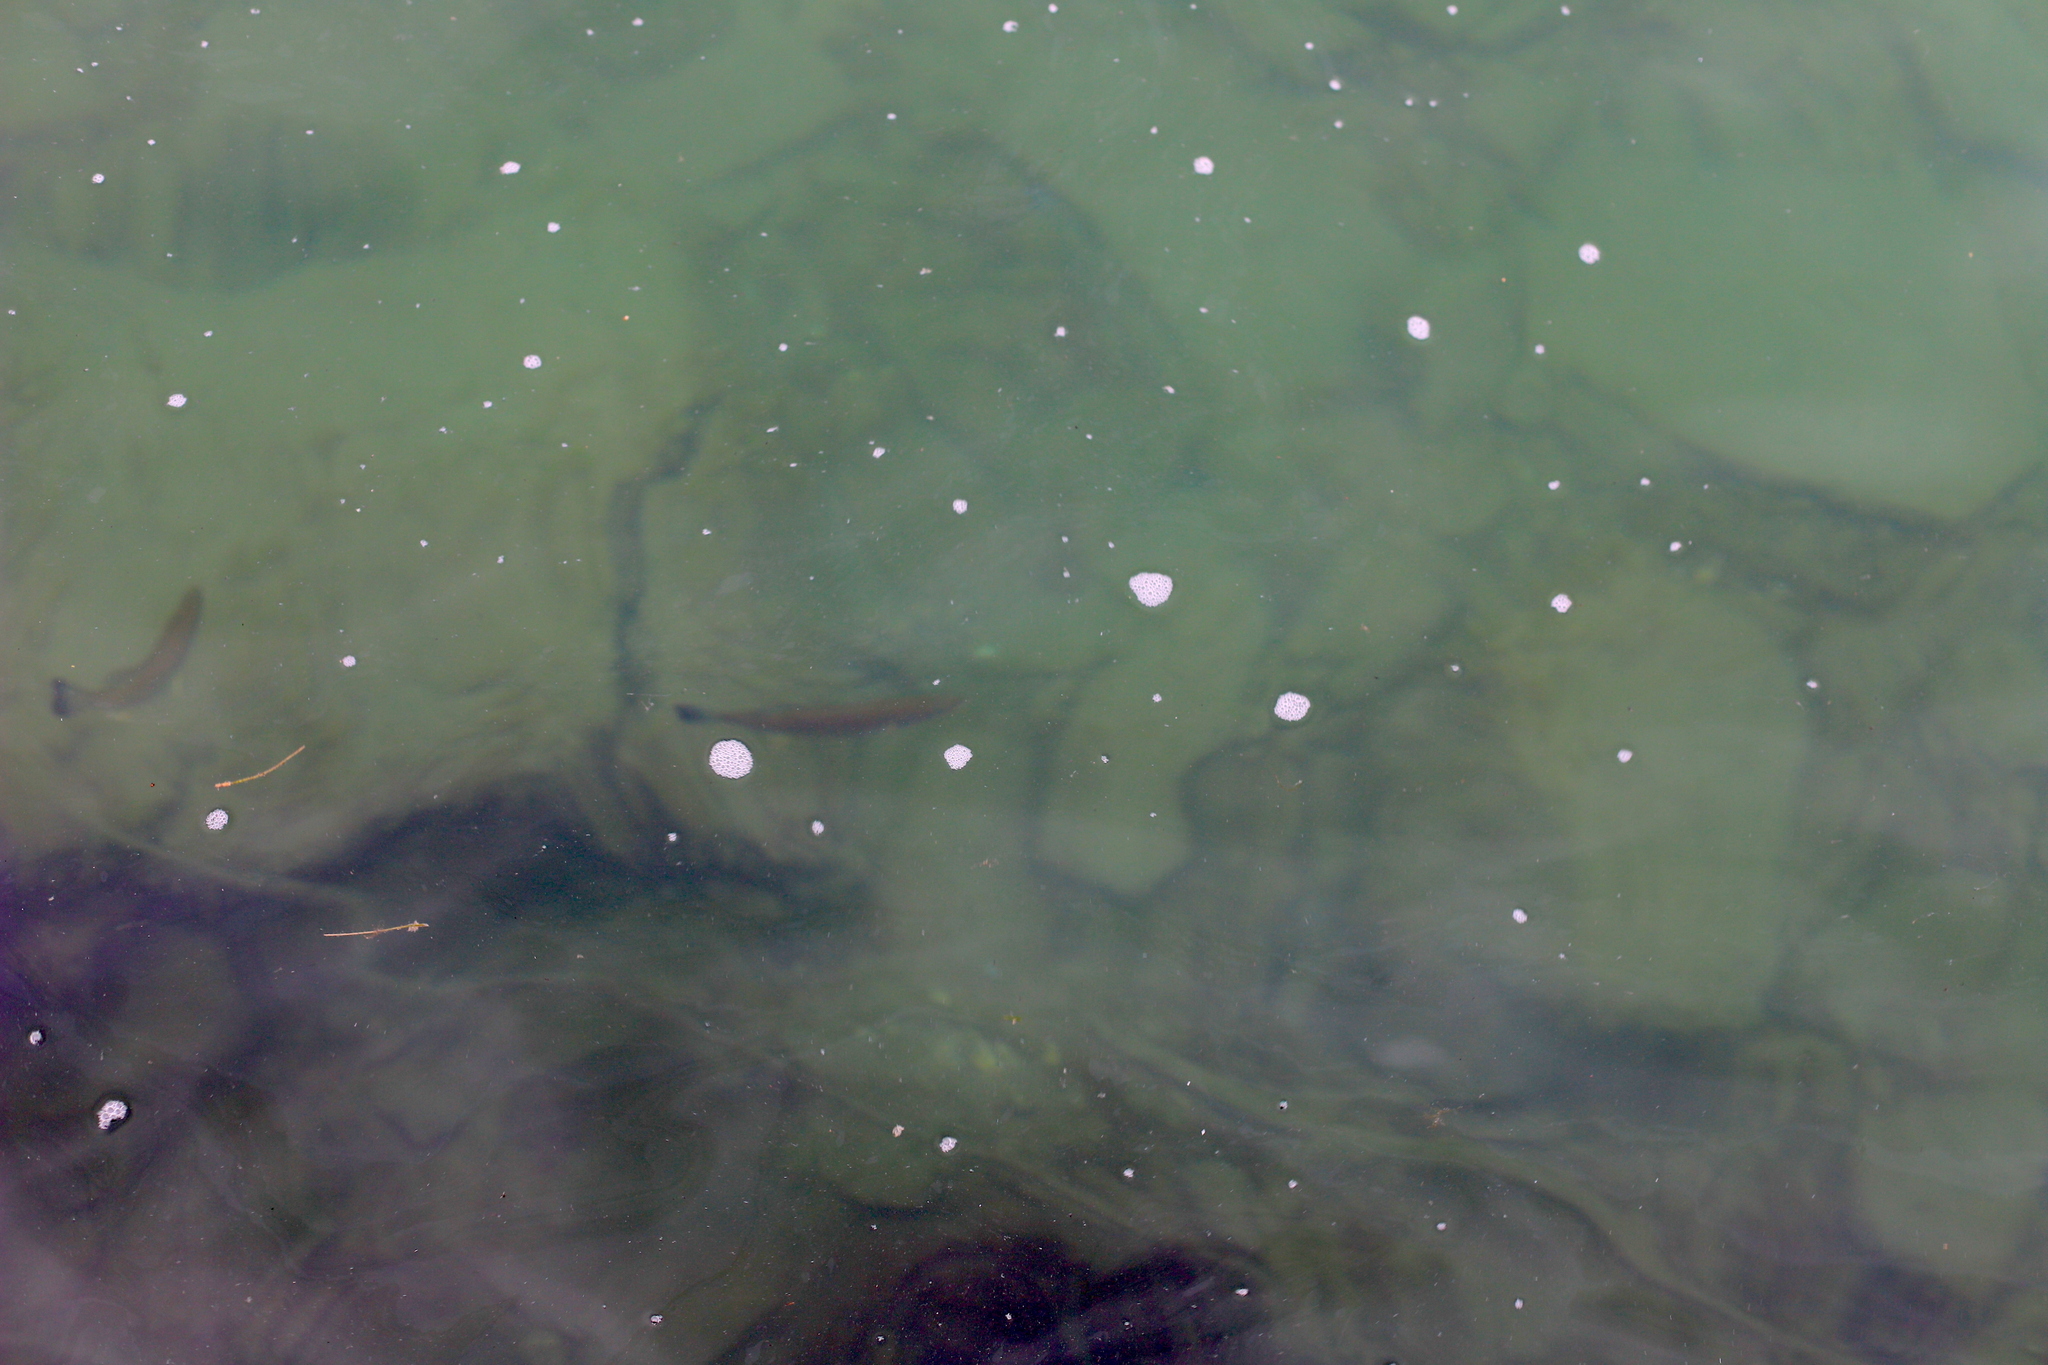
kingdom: Animalia
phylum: Chordata
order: Perciformes
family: Centrarchidae
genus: Micropterus
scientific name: Micropterus dolomieu
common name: Smallmouth bass
